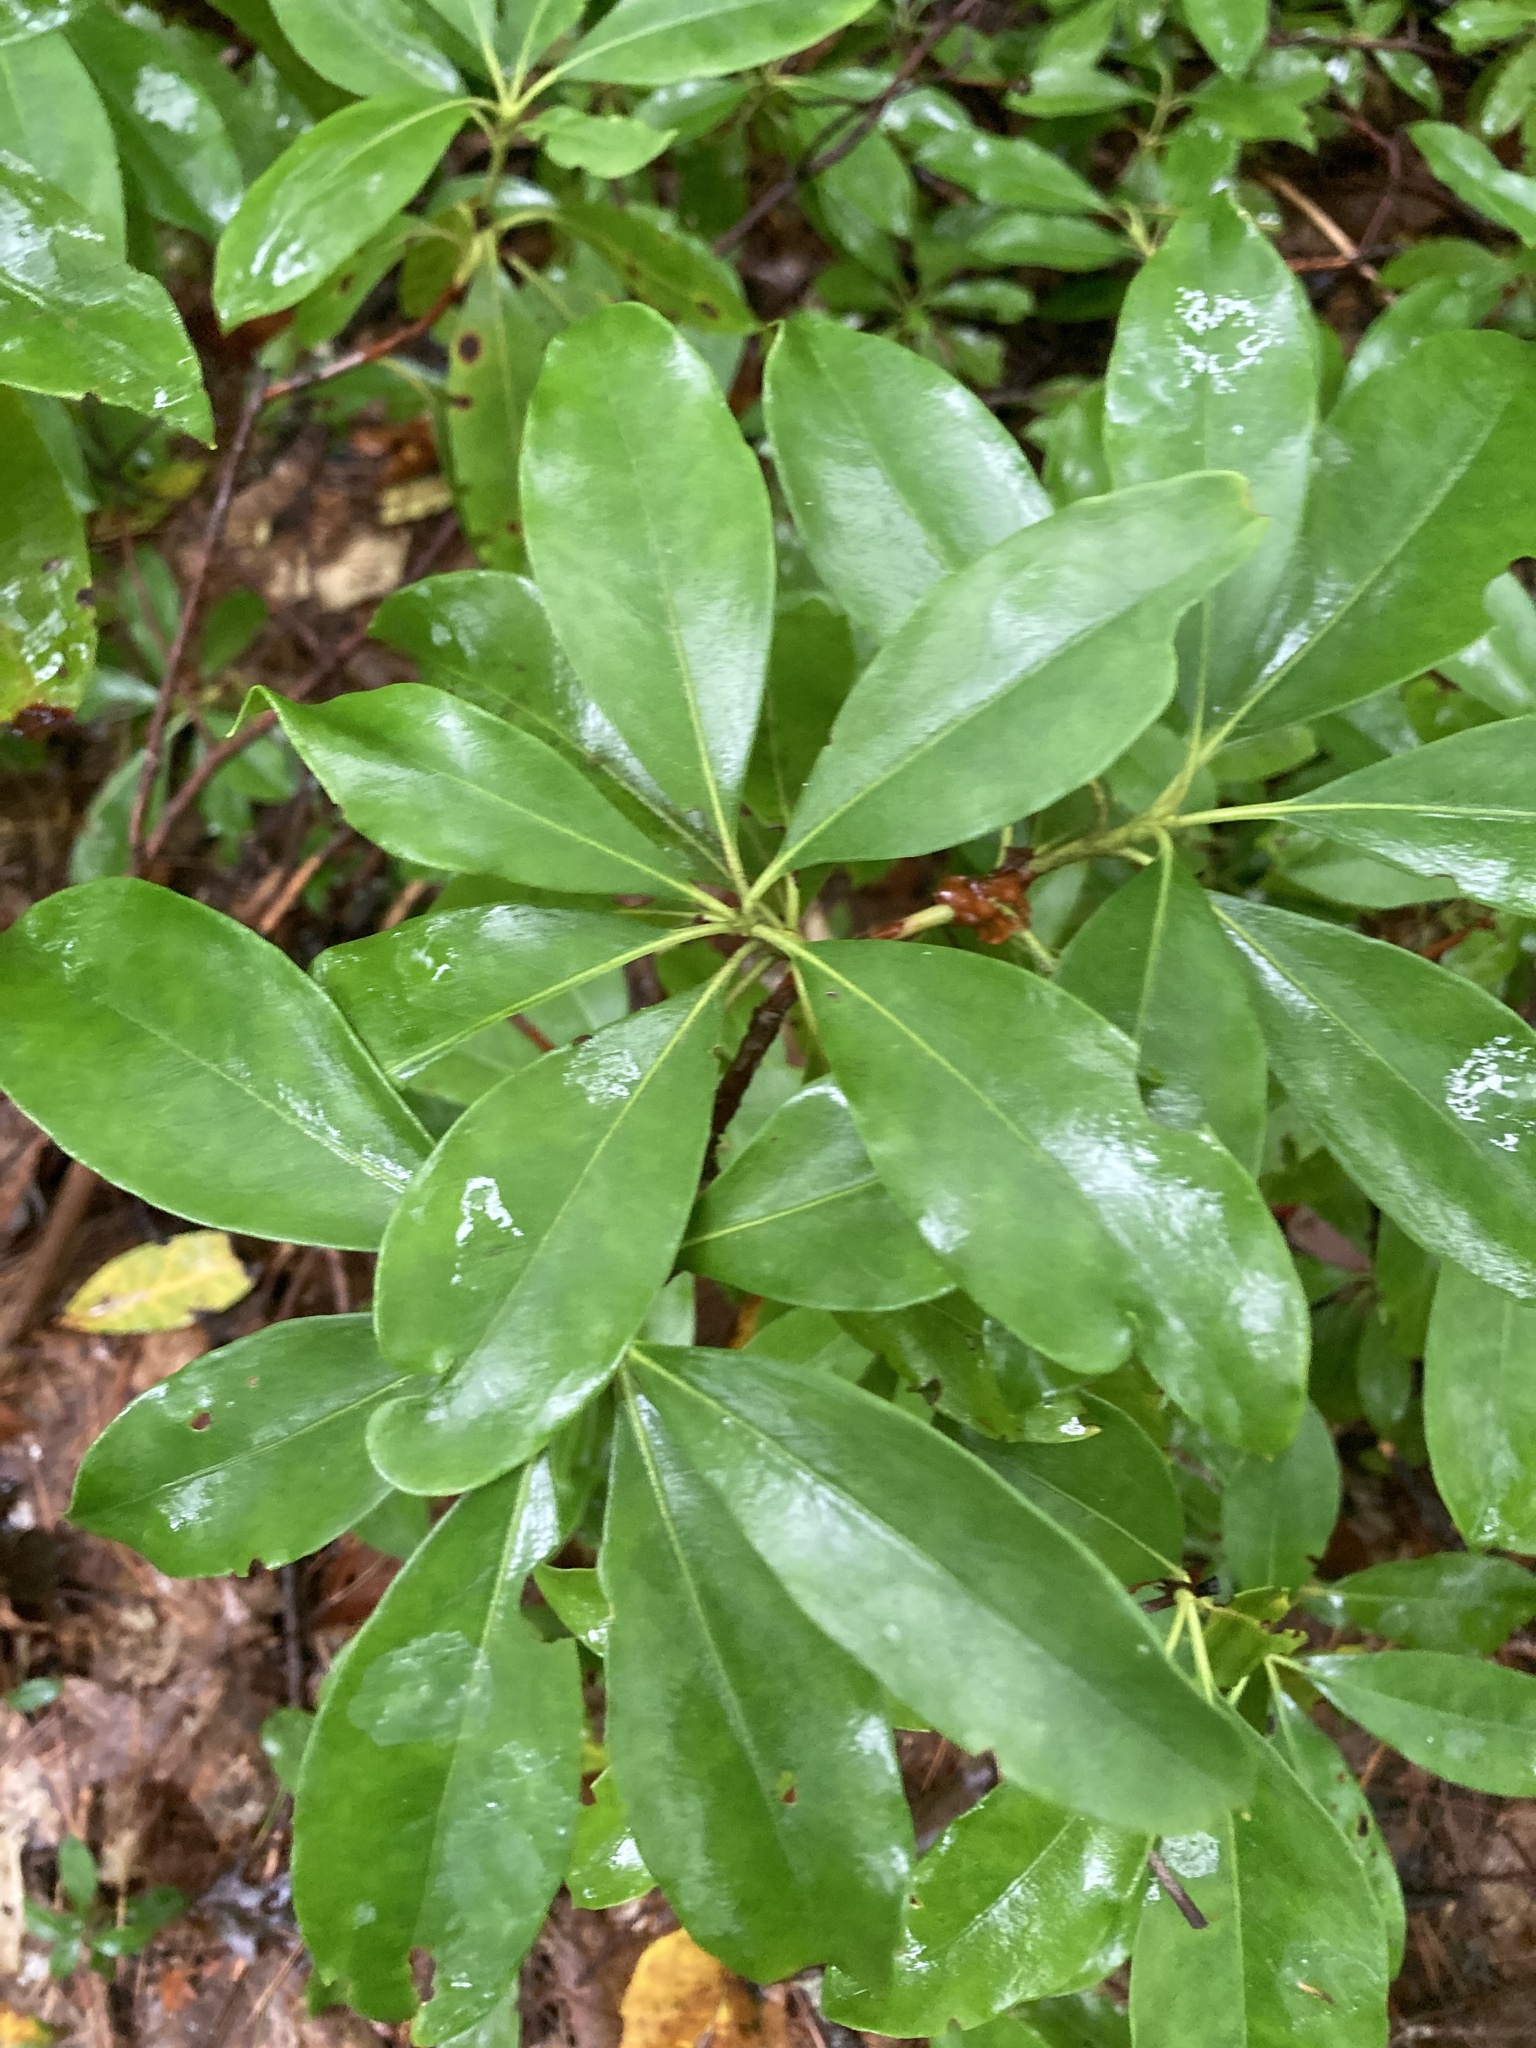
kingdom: Plantae
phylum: Tracheophyta
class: Magnoliopsida
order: Ericales
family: Ericaceae
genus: Kalmia
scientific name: Kalmia latifolia
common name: Mountain-laurel
